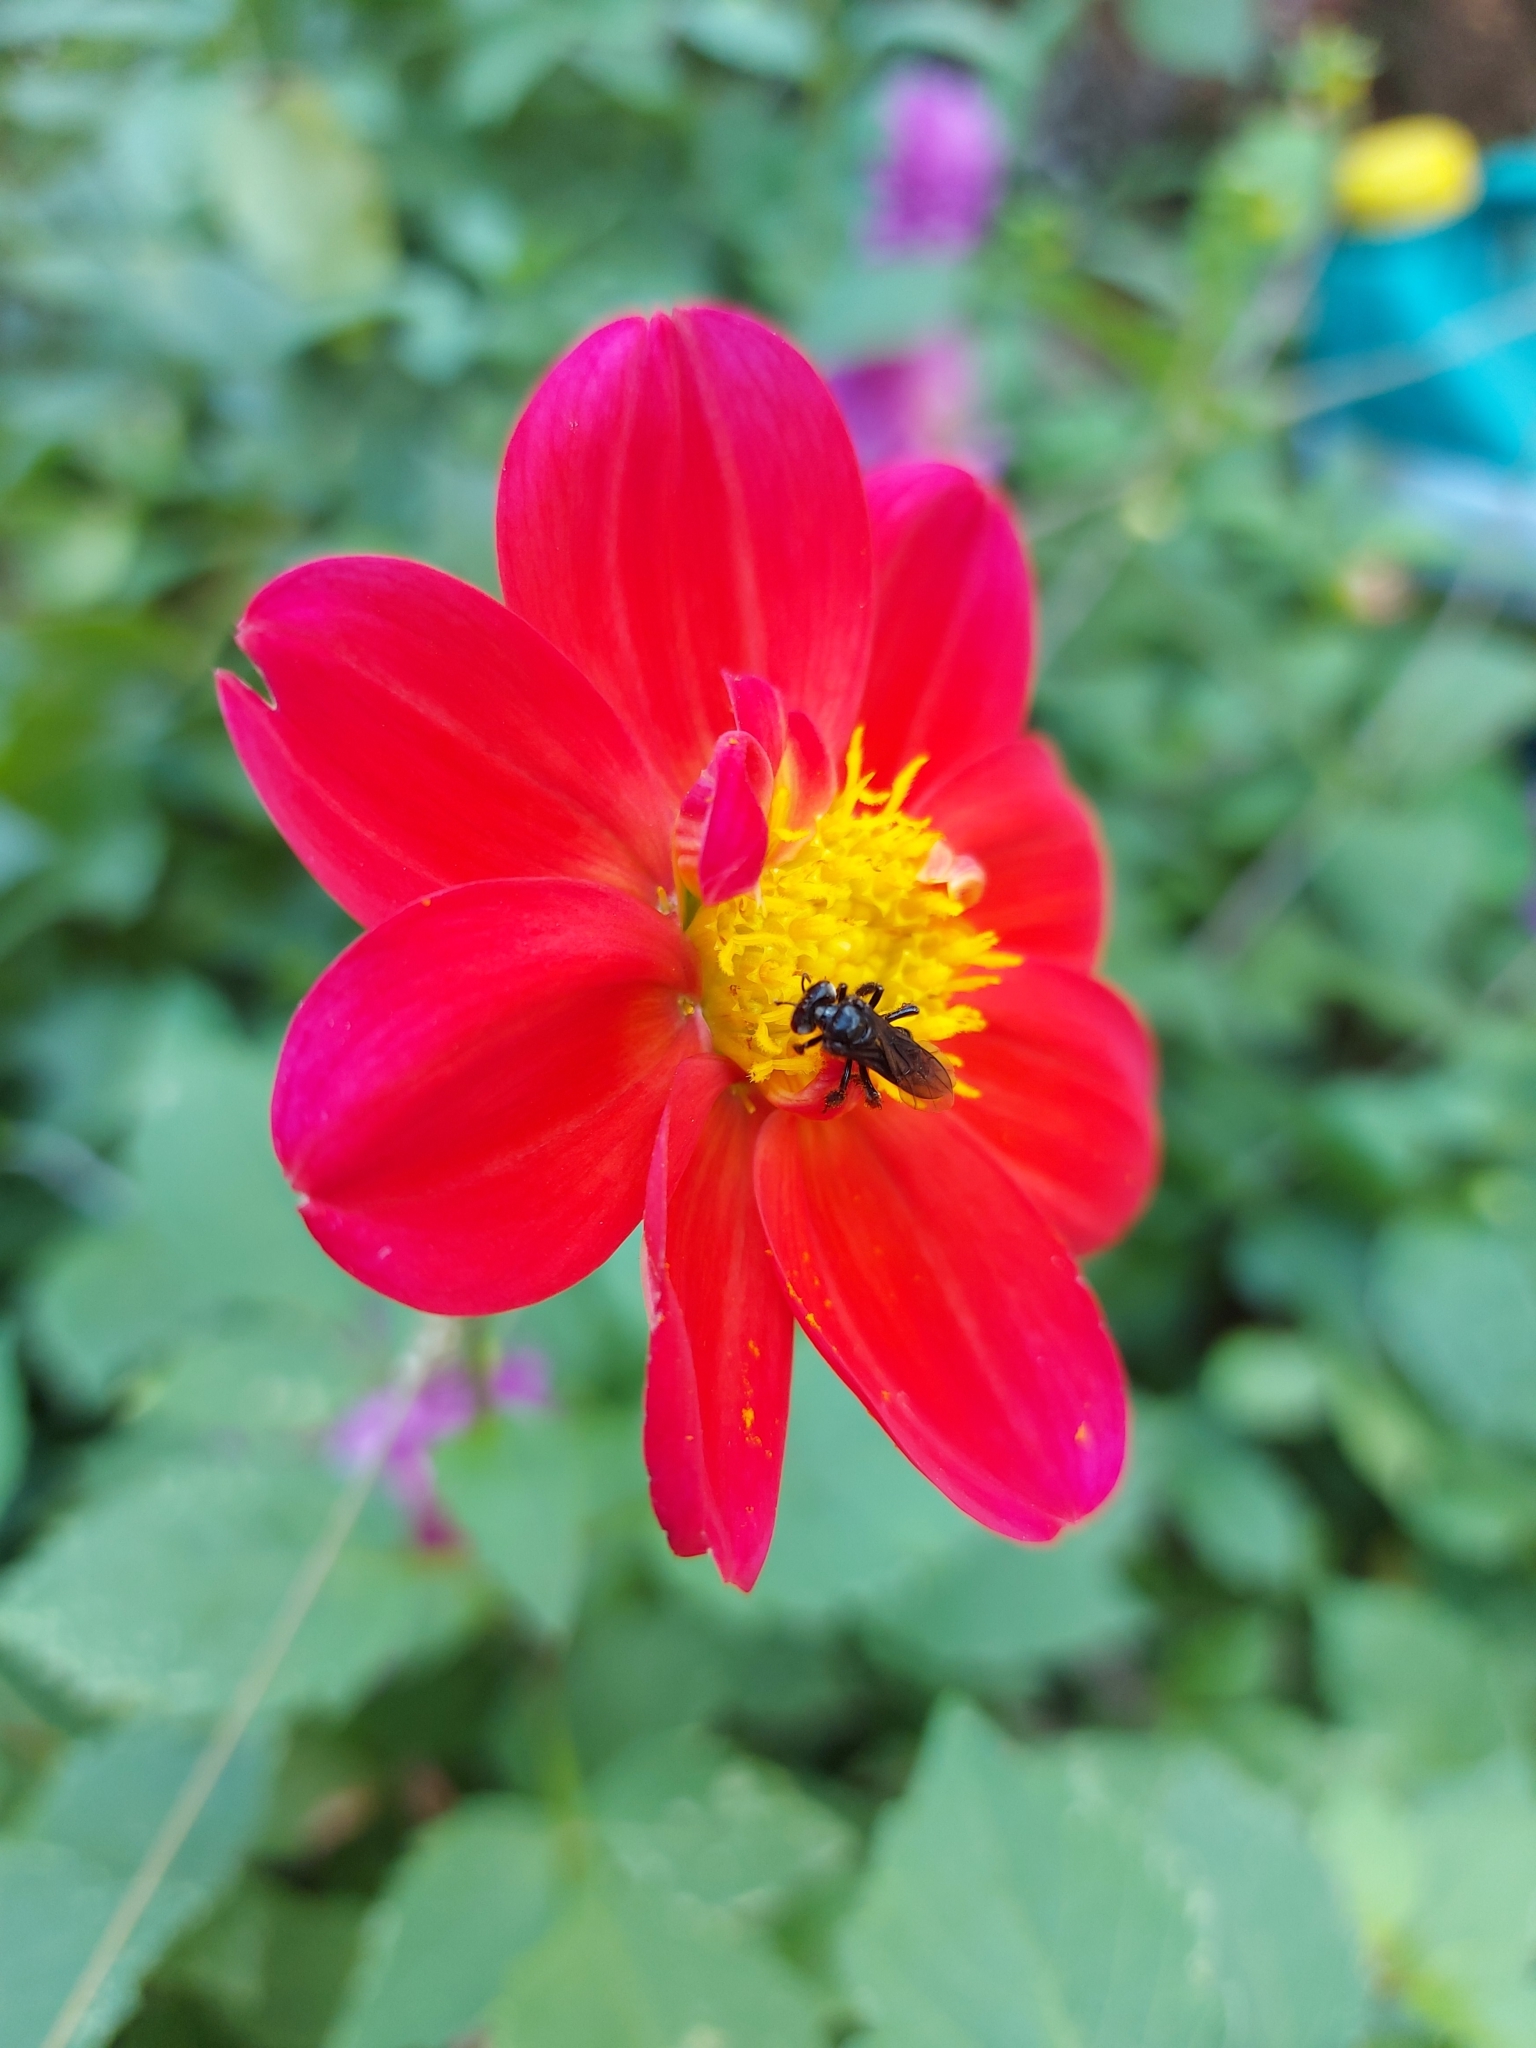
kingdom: Animalia
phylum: Arthropoda
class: Insecta
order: Hymenoptera
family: Apidae
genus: Trigona
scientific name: Trigona spinipes
